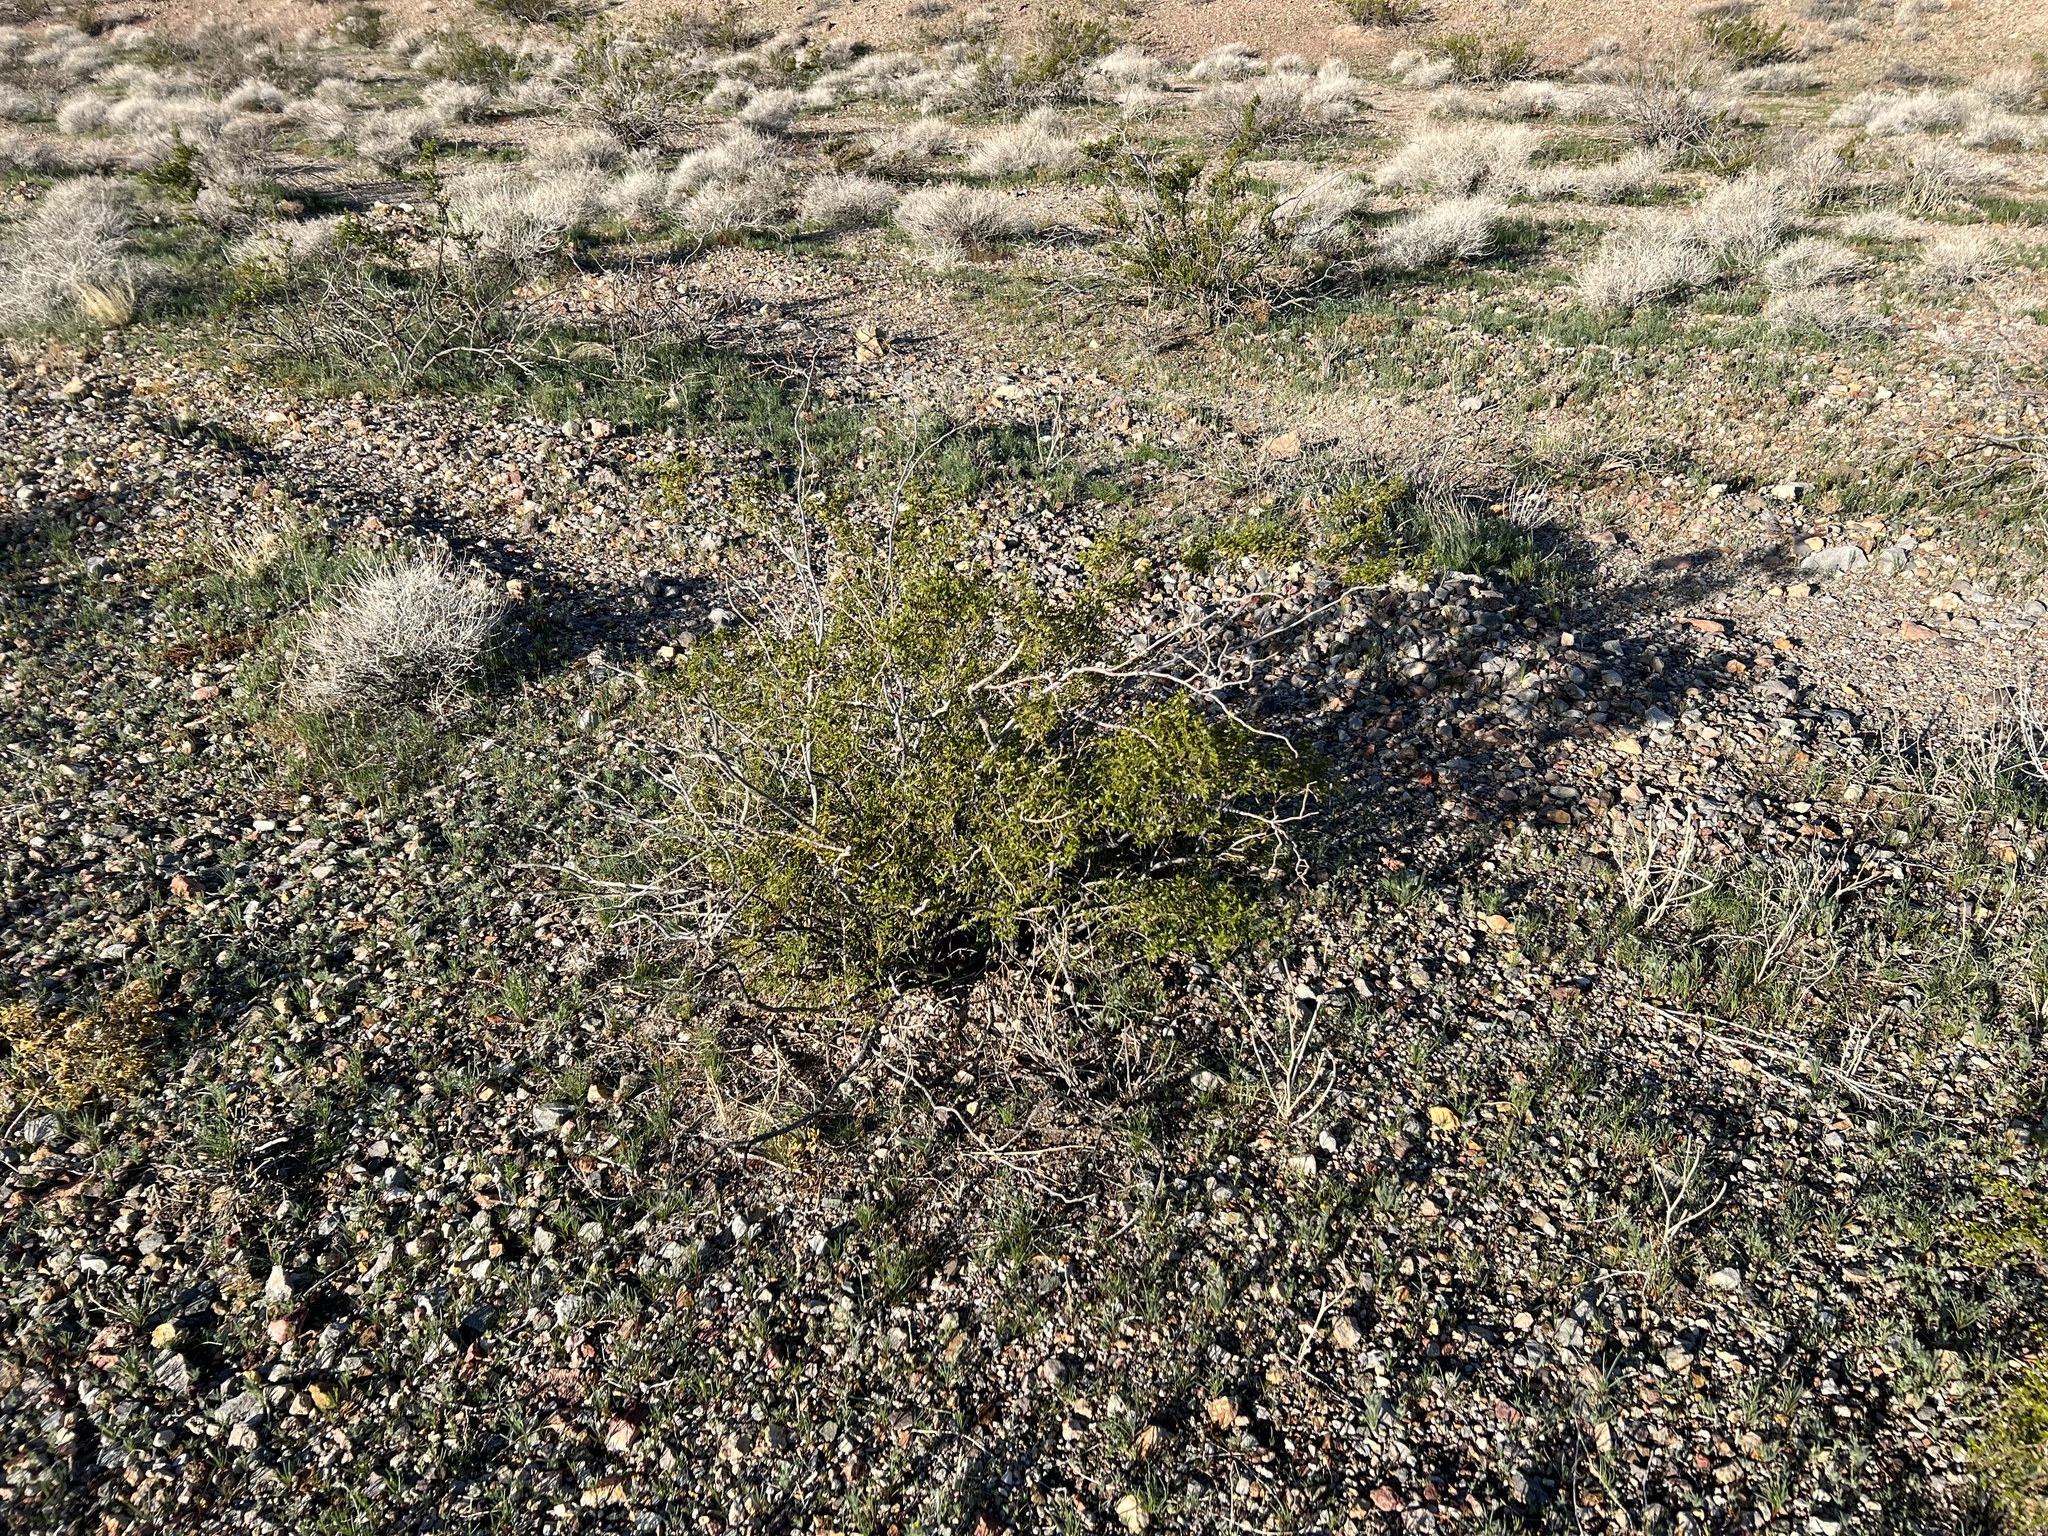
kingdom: Plantae
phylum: Tracheophyta
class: Magnoliopsida
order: Zygophyllales
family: Zygophyllaceae
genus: Larrea
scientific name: Larrea tridentata
